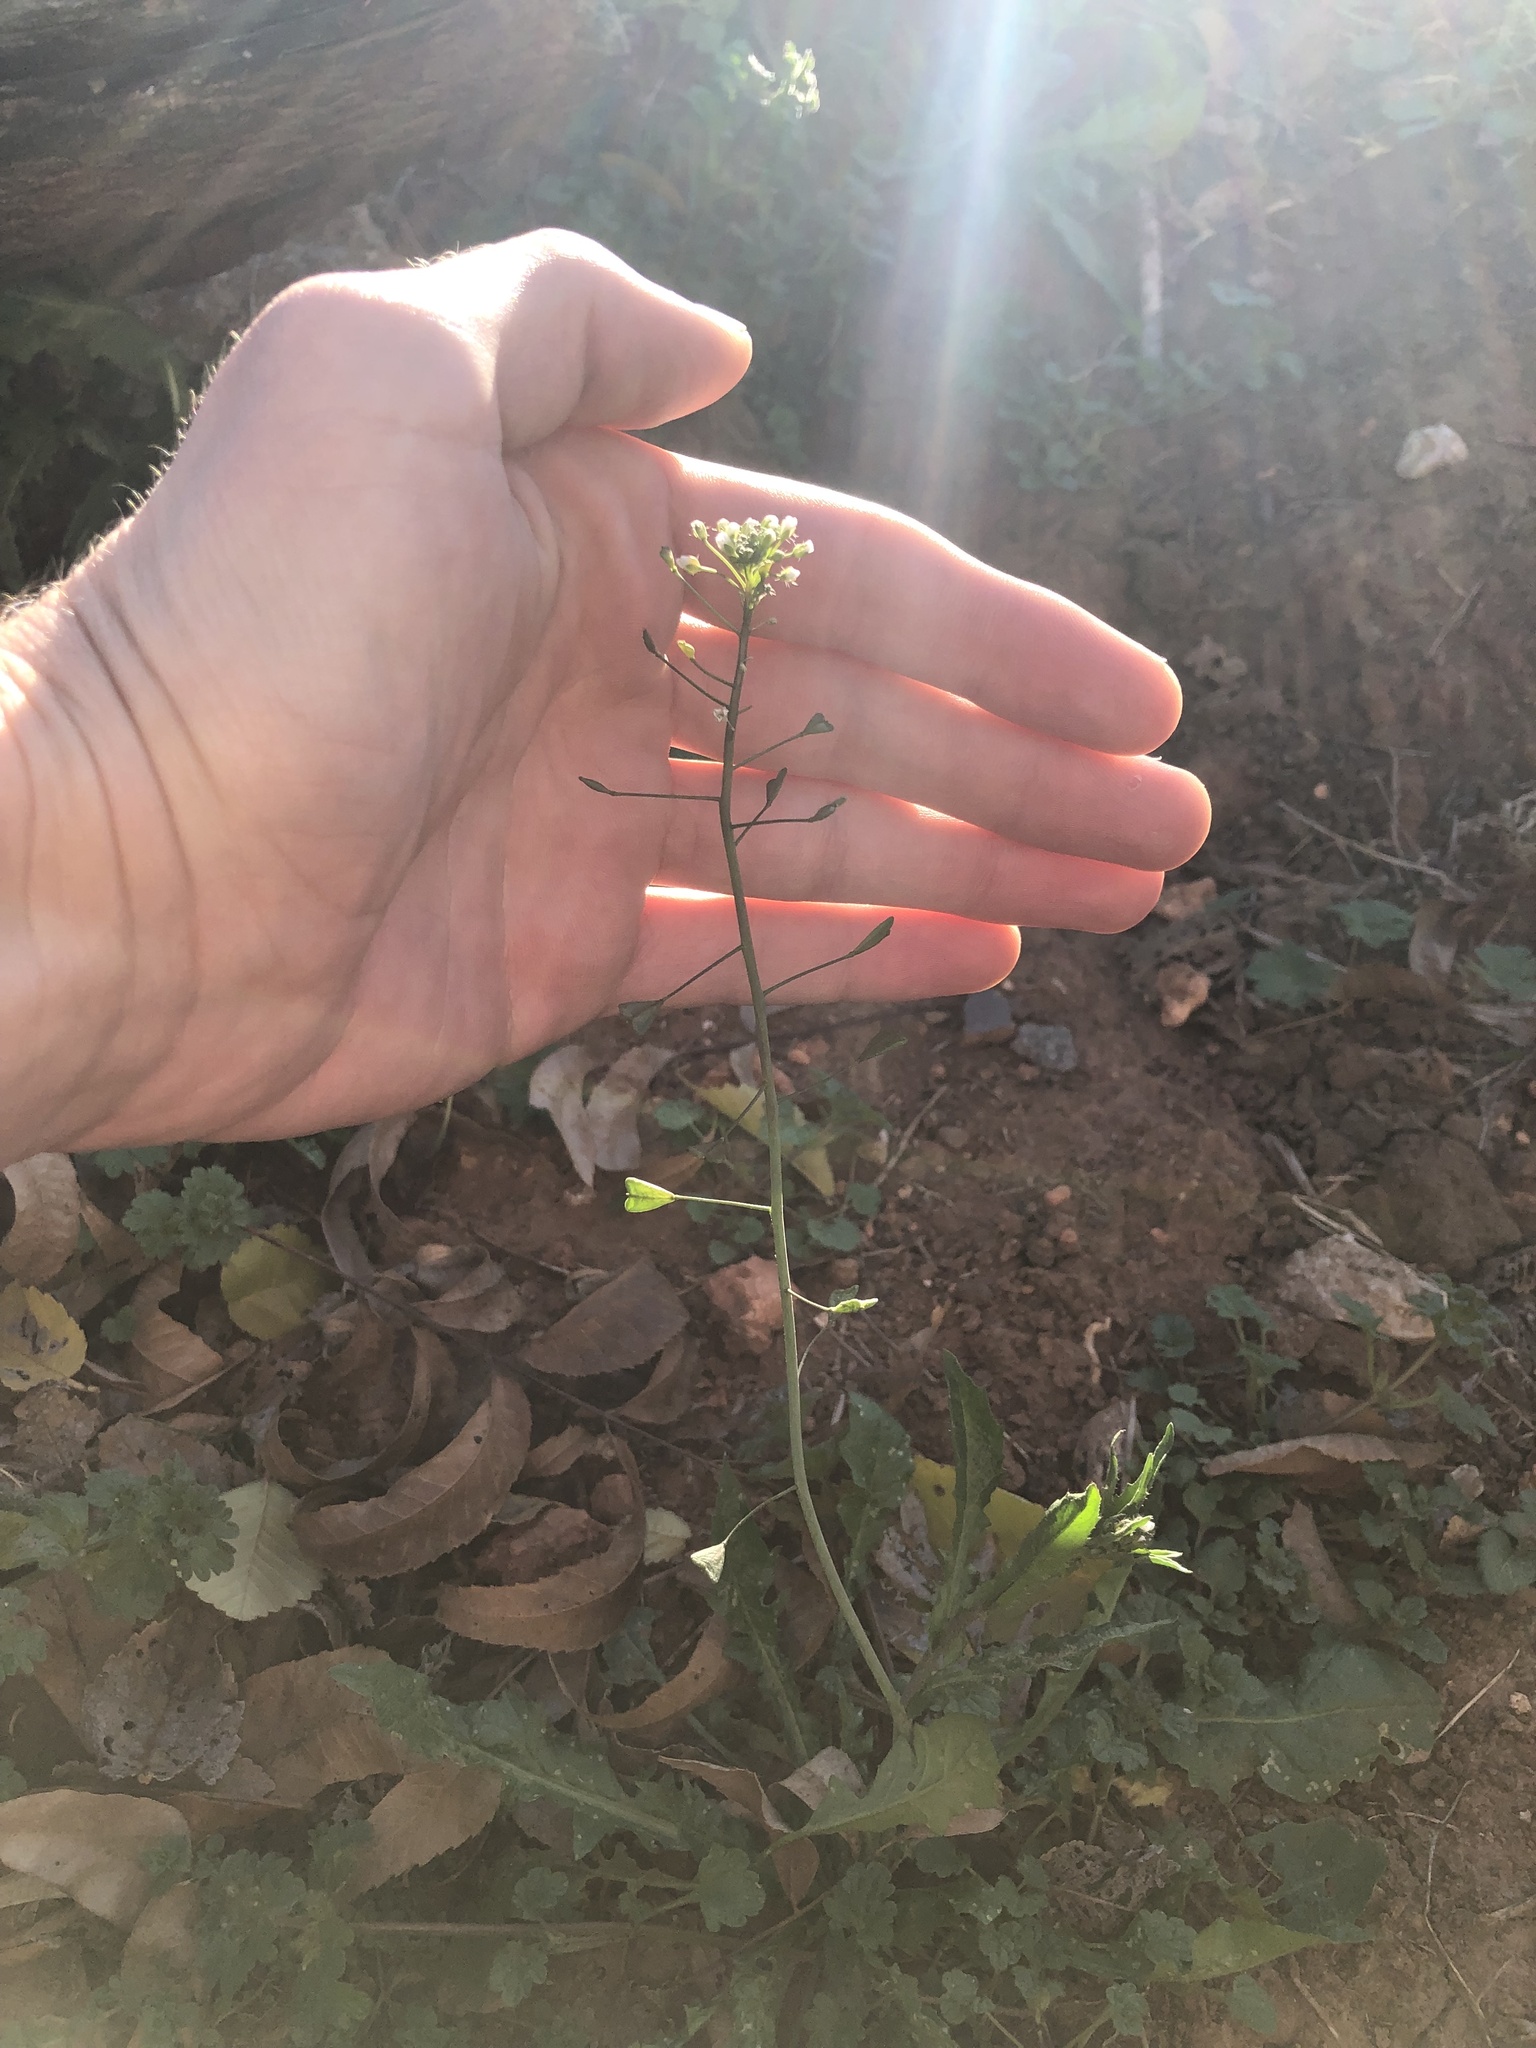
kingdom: Plantae
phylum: Tracheophyta
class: Magnoliopsida
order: Brassicales
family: Brassicaceae
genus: Capsella
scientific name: Capsella bursa-pastoris
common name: Shepherd's purse
